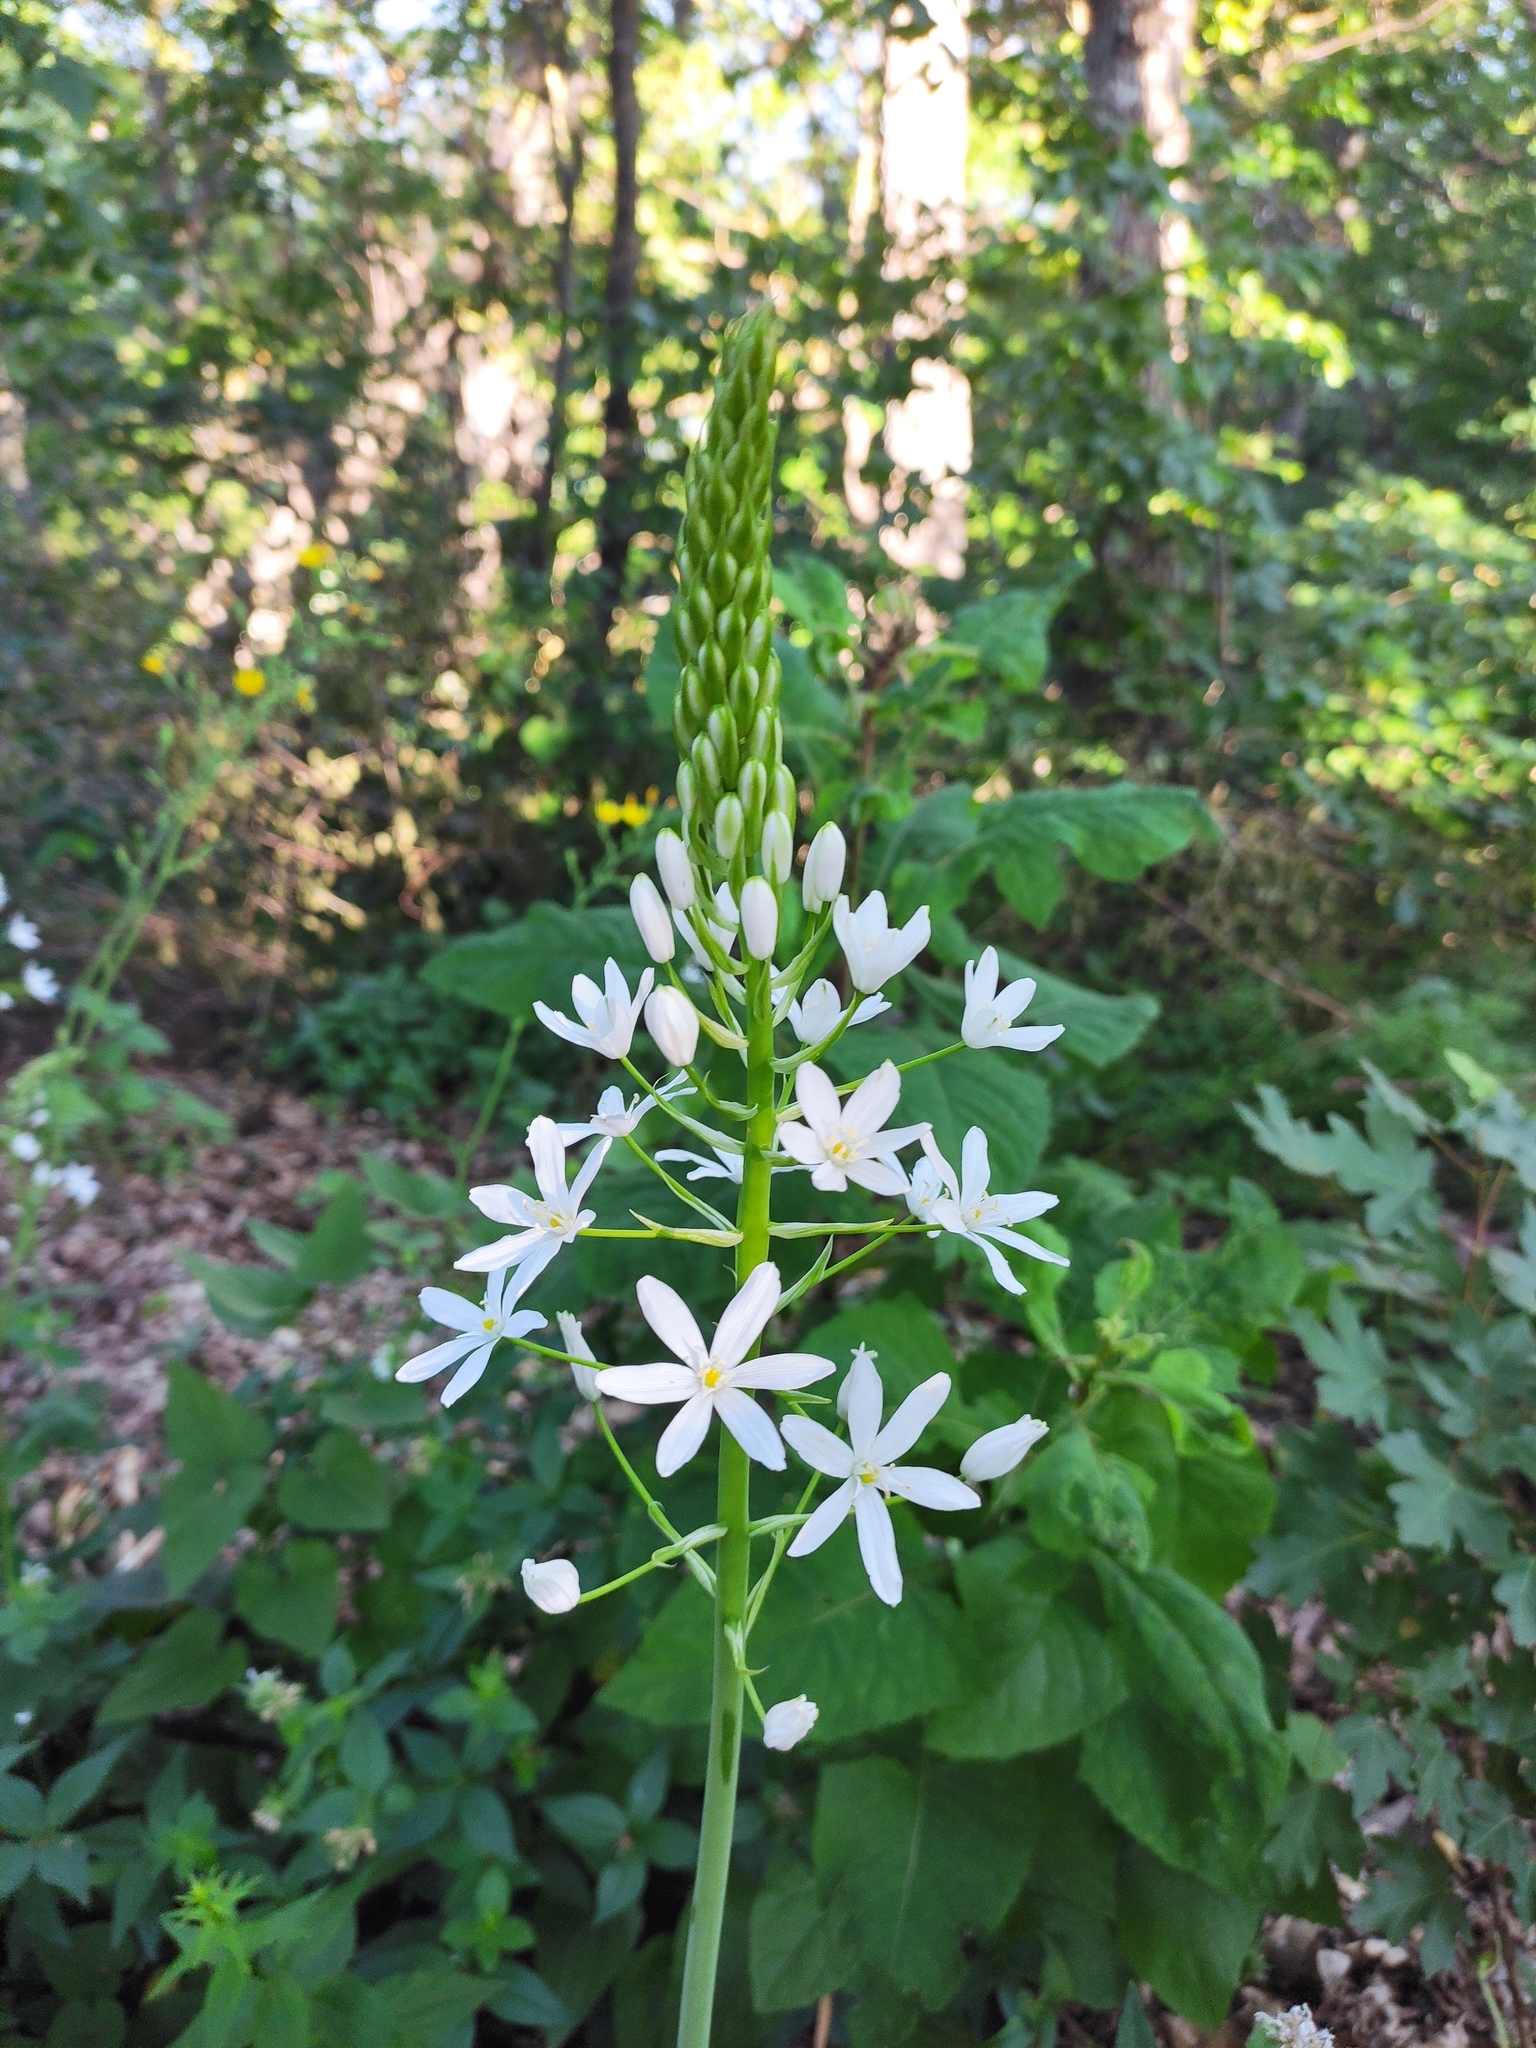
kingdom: Plantae
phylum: Tracheophyta
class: Liliopsida
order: Asparagales
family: Asparagaceae
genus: Ornithogalum
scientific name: Ornithogalum arcuatum
